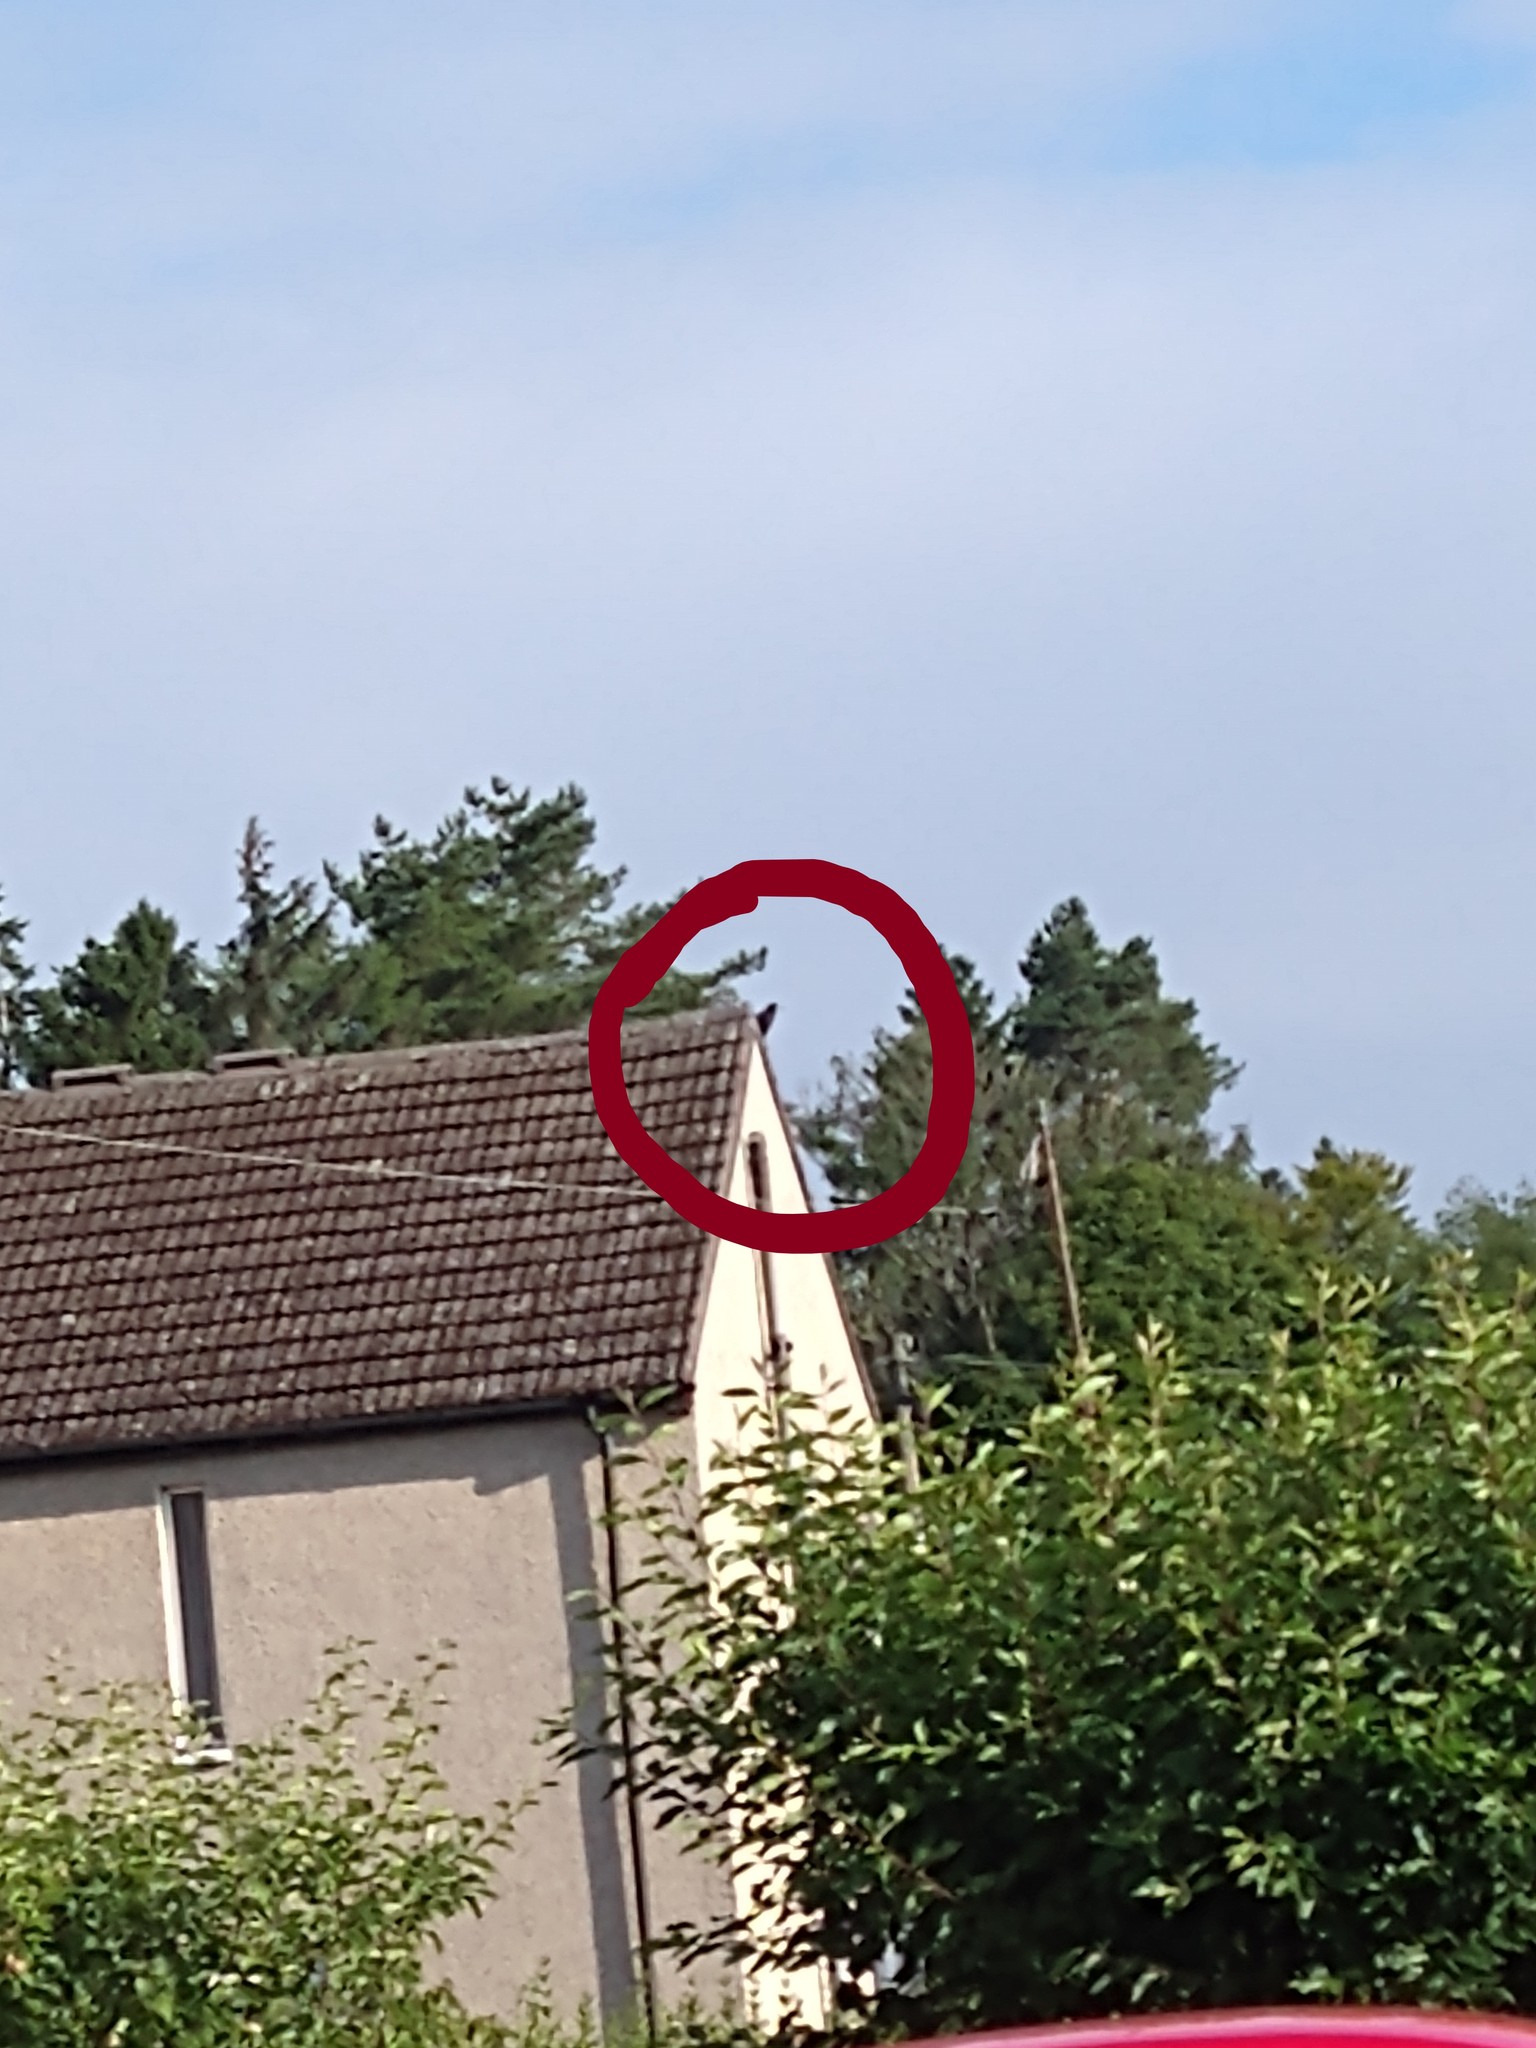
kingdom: Animalia
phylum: Chordata
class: Aves
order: Passeriformes
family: Corvidae
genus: Corvus
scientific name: Corvus frugilegus
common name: Rook
